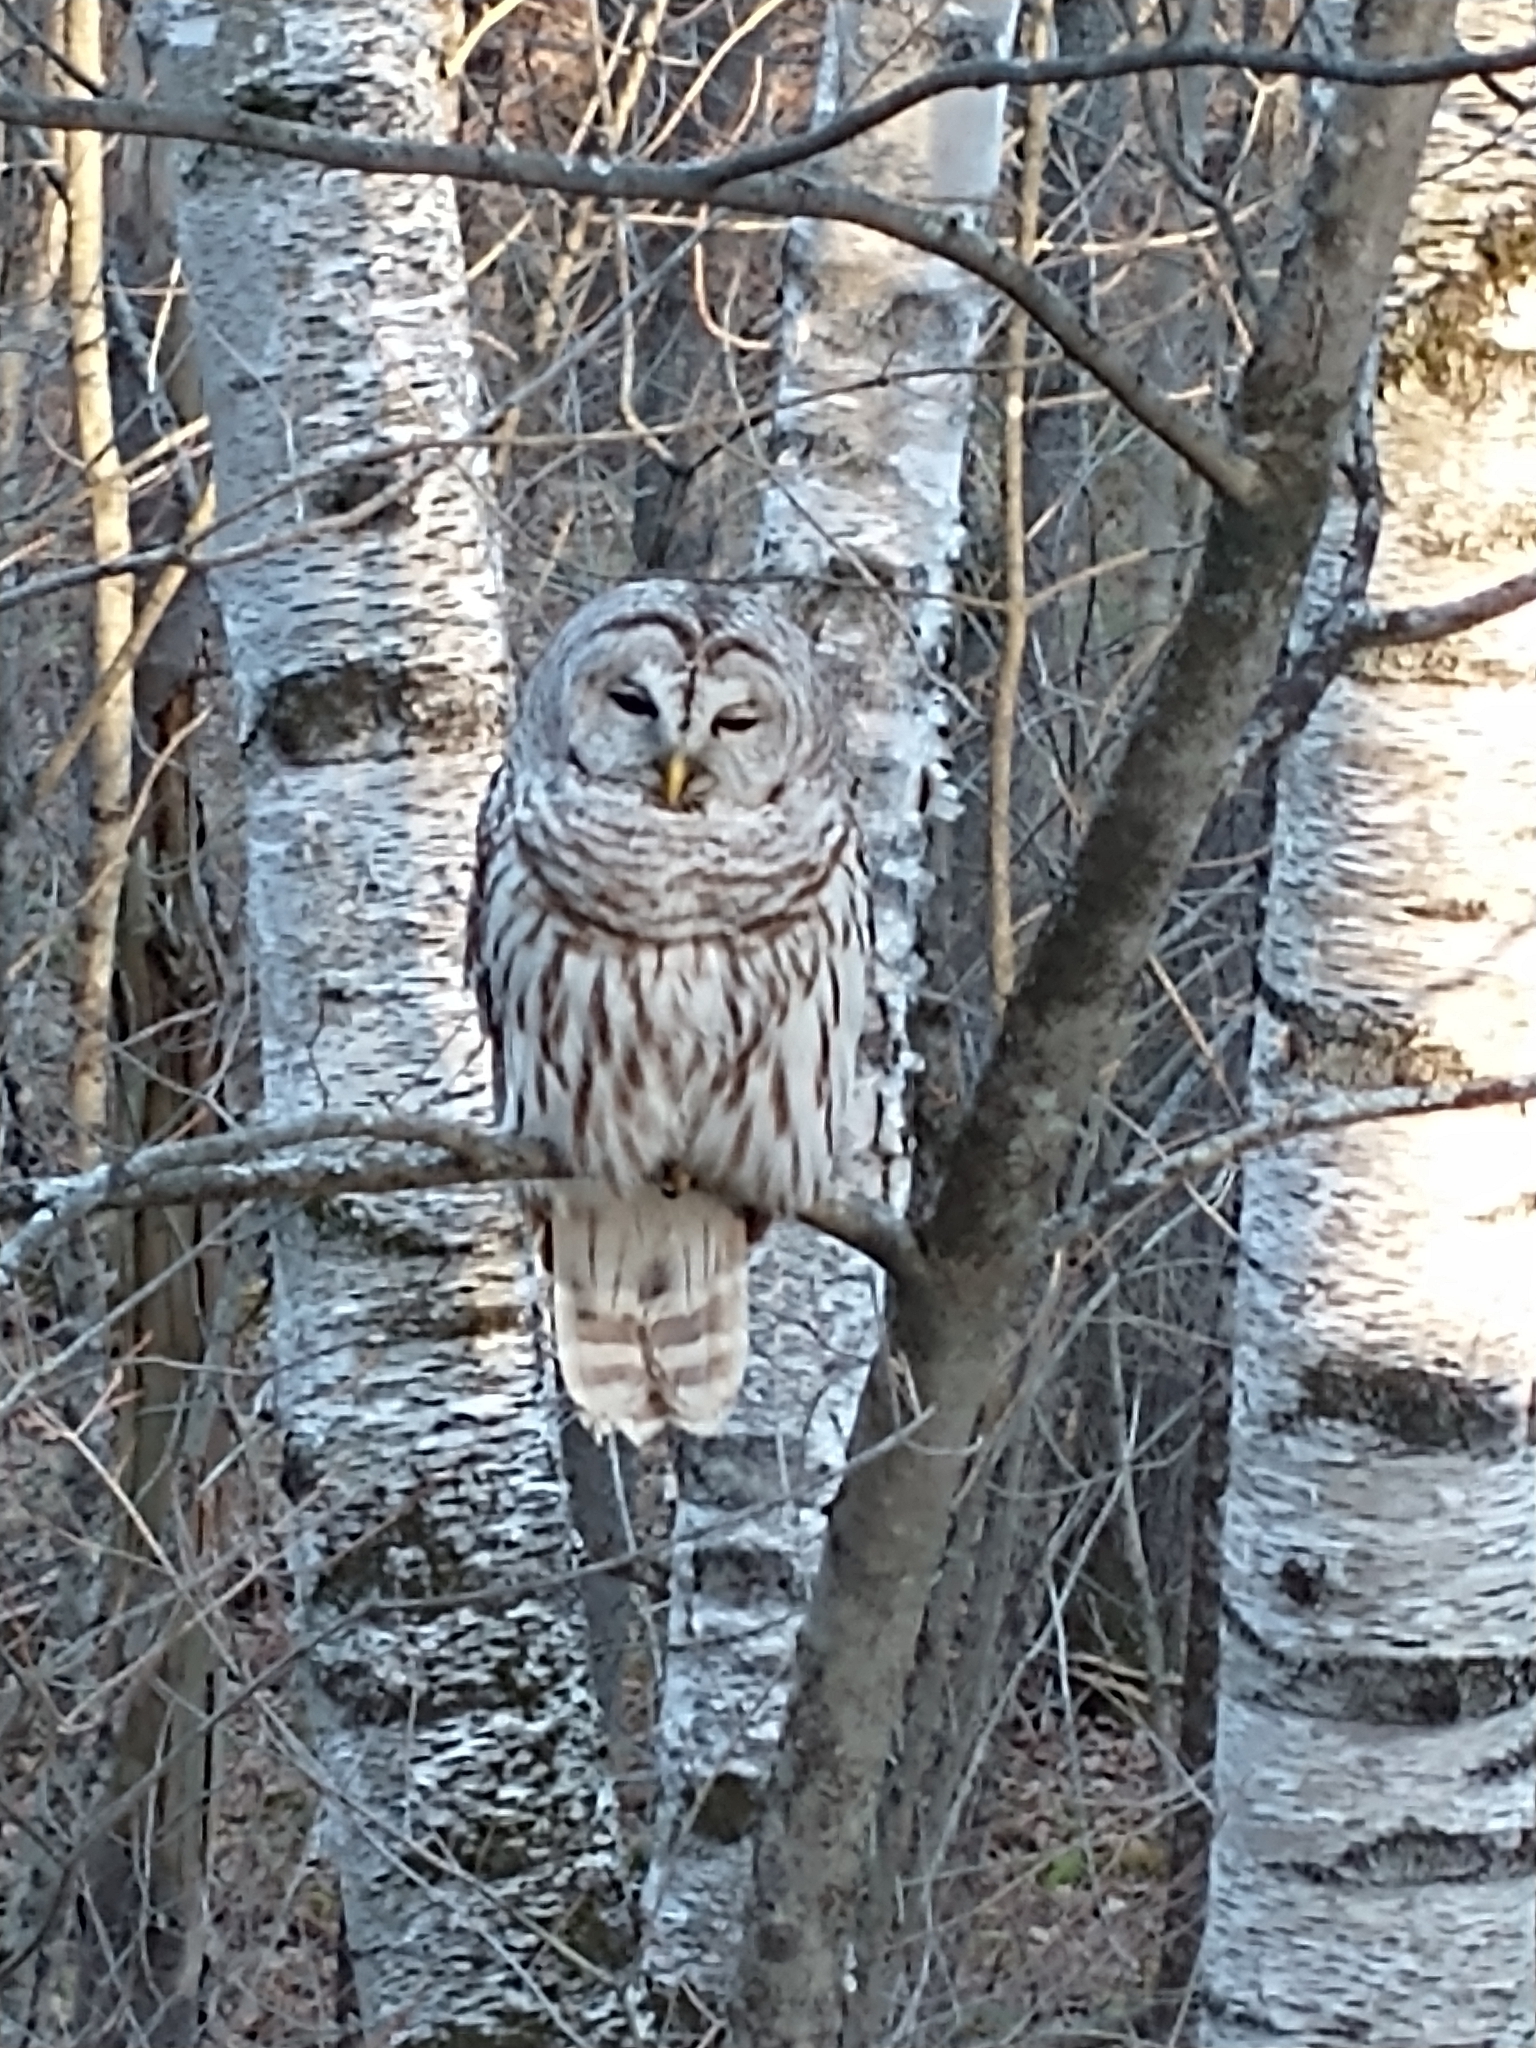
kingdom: Animalia
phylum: Chordata
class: Aves
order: Strigiformes
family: Strigidae
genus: Strix
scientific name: Strix varia
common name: Barred owl
